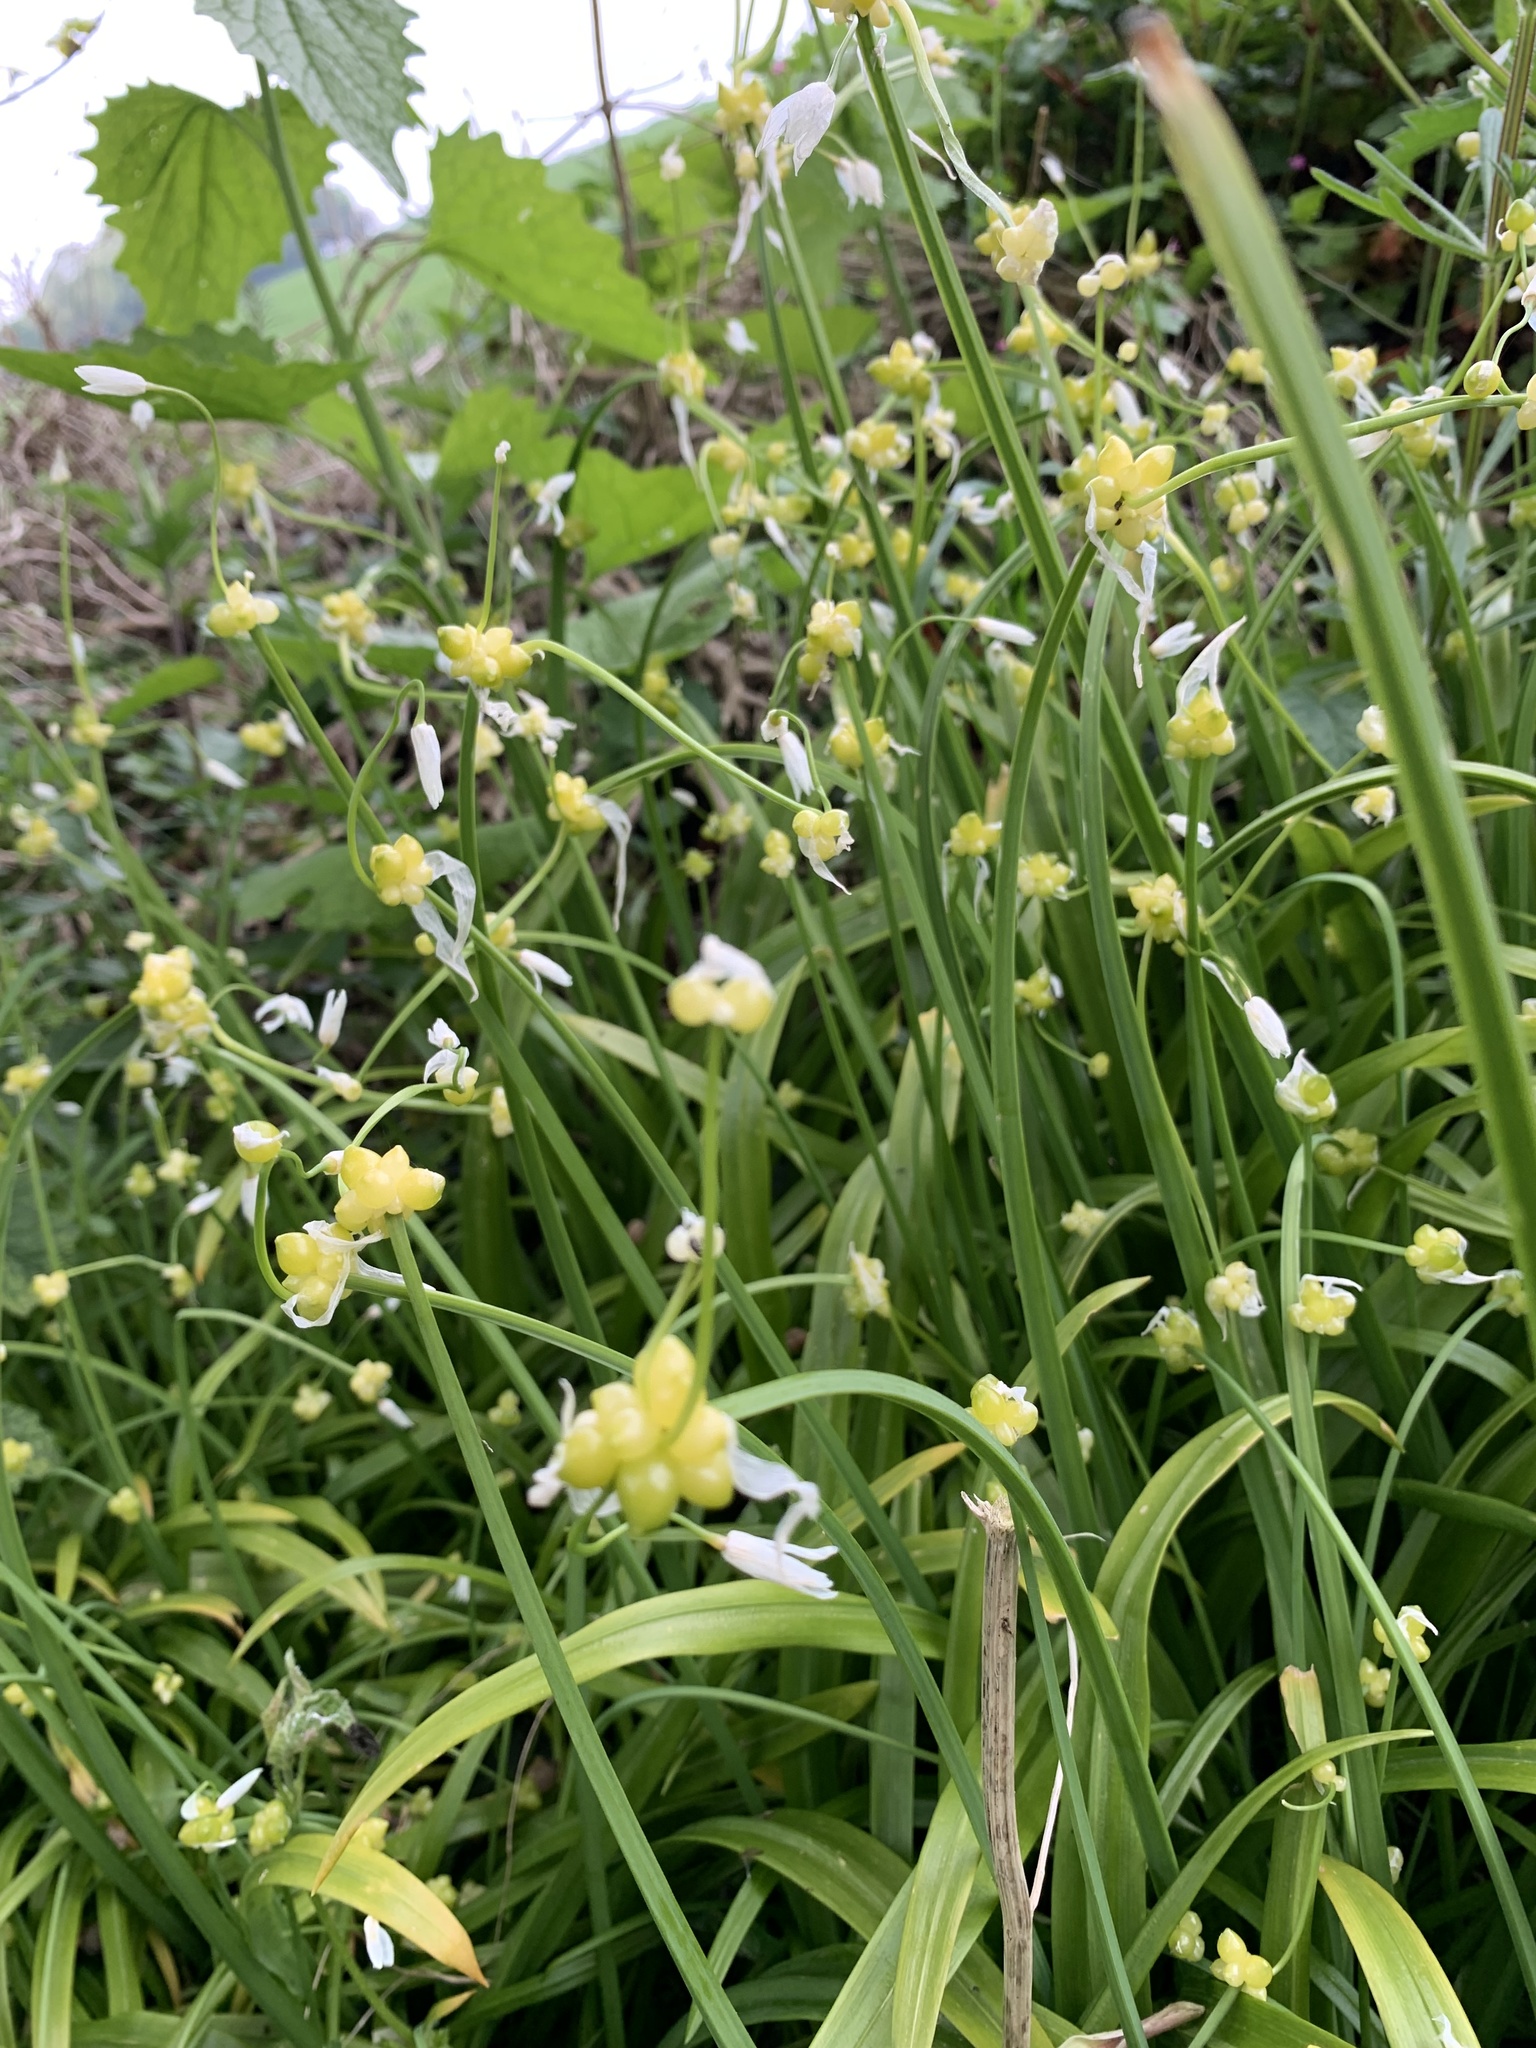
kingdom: Plantae
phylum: Tracheophyta
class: Liliopsida
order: Asparagales
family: Amaryllidaceae
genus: Allium
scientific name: Allium paradoxum
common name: Few-flowered garlic
